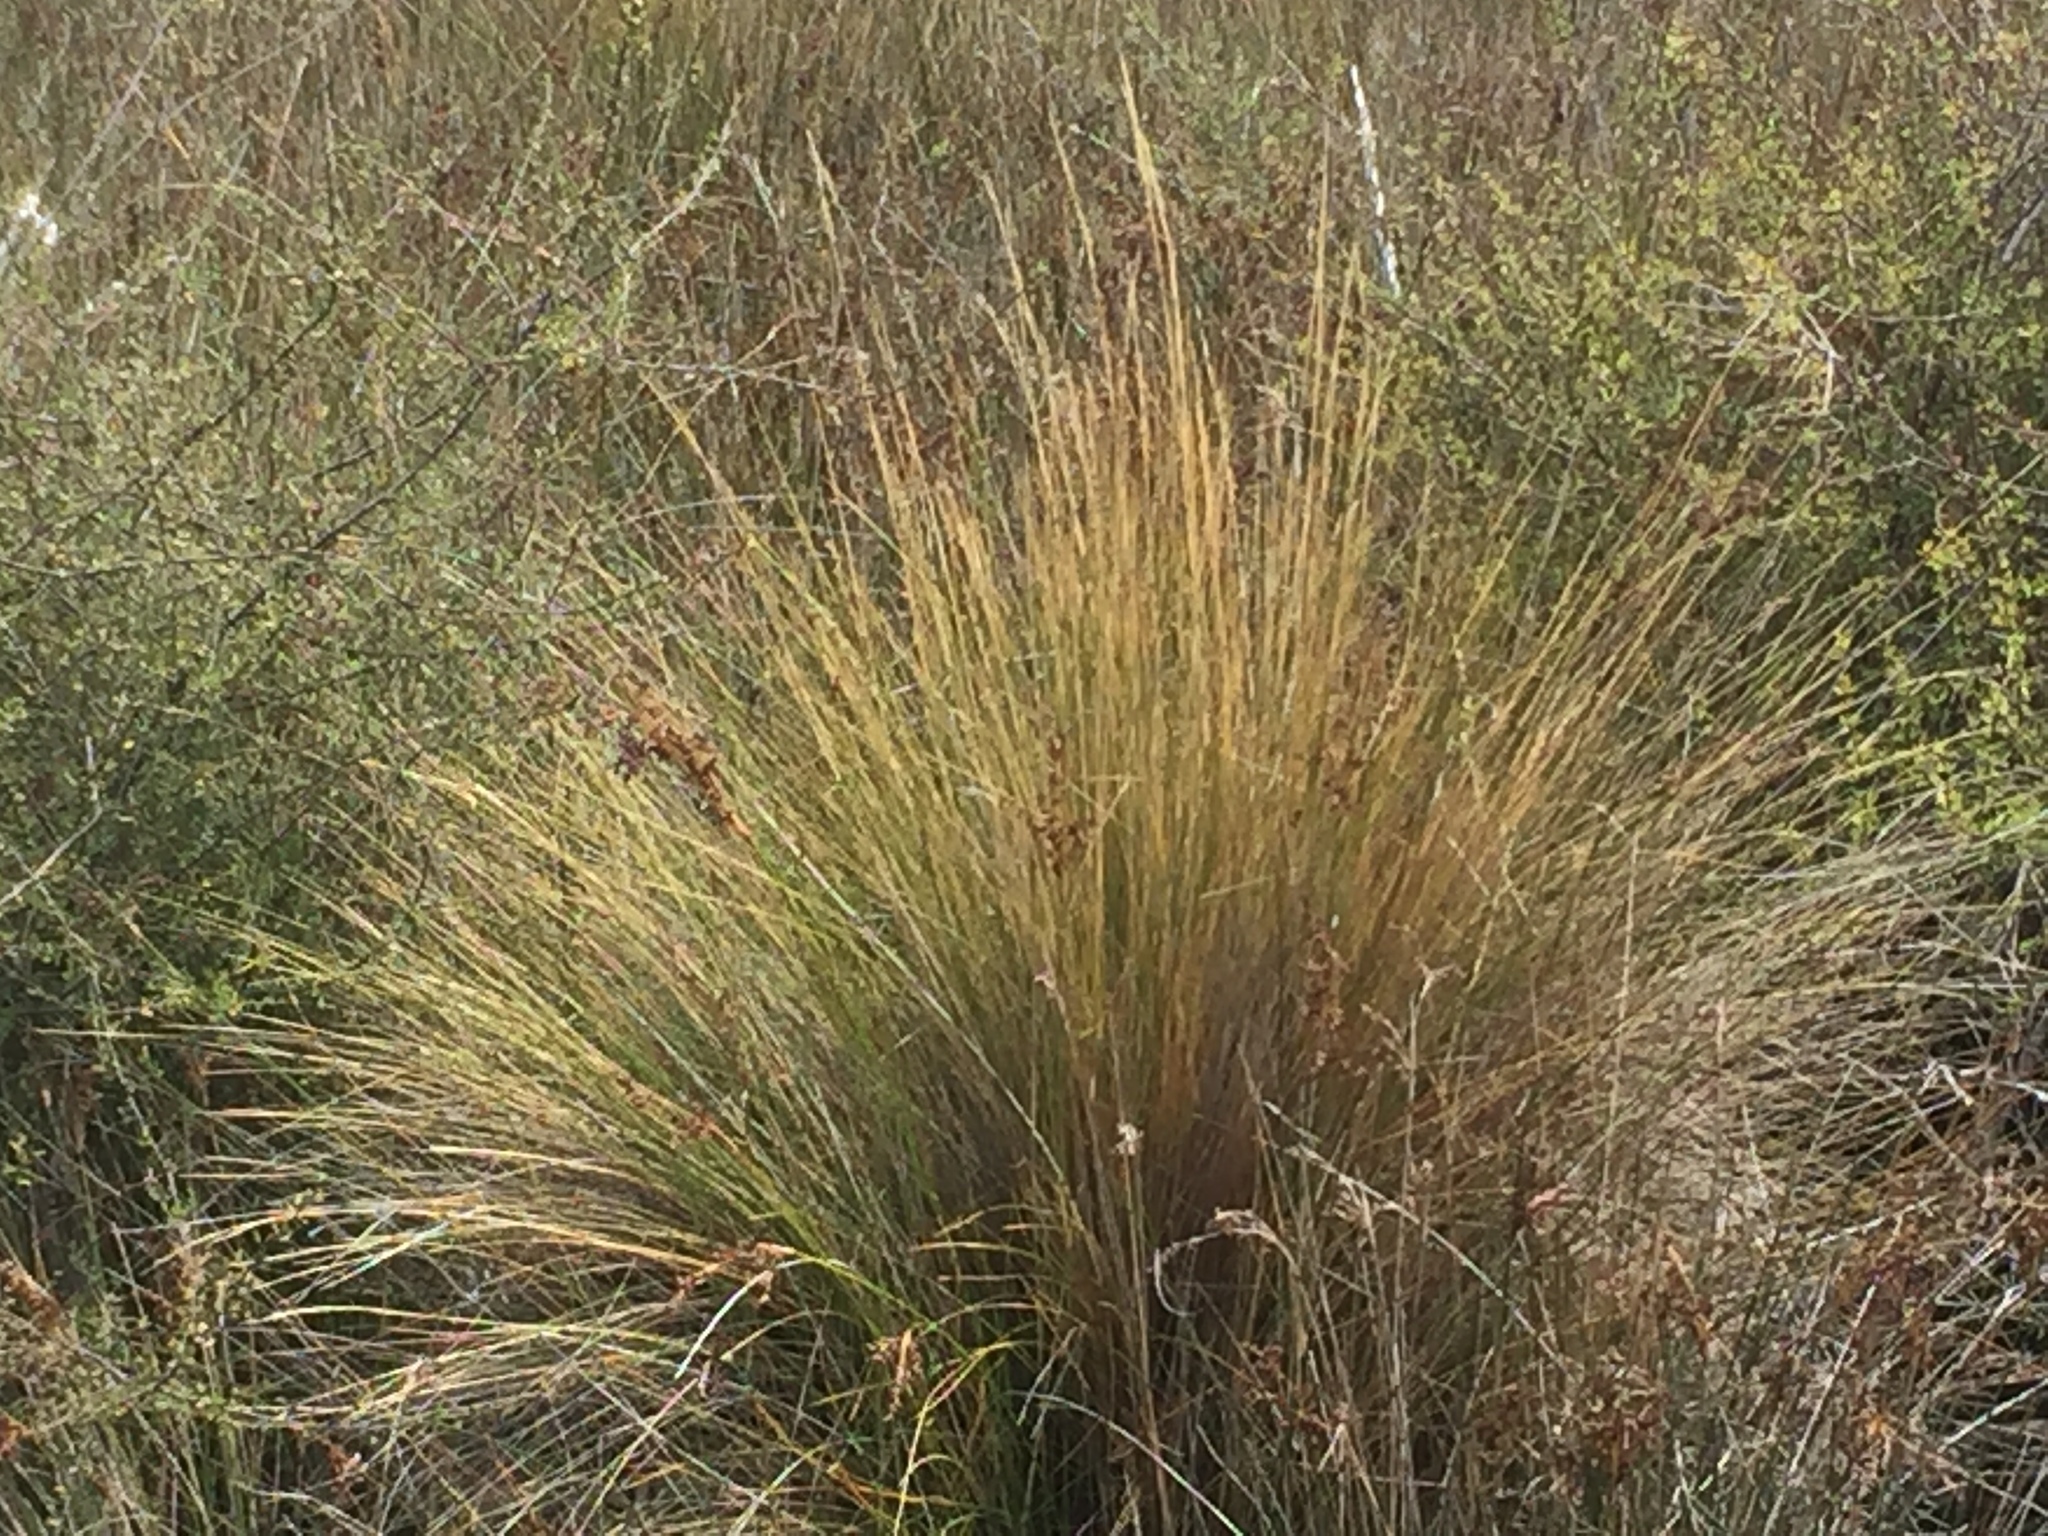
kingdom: Plantae
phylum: Tracheophyta
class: Liliopsida
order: Poales
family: Poaceae
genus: Austrostipa
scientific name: Austrostipa stipoides
